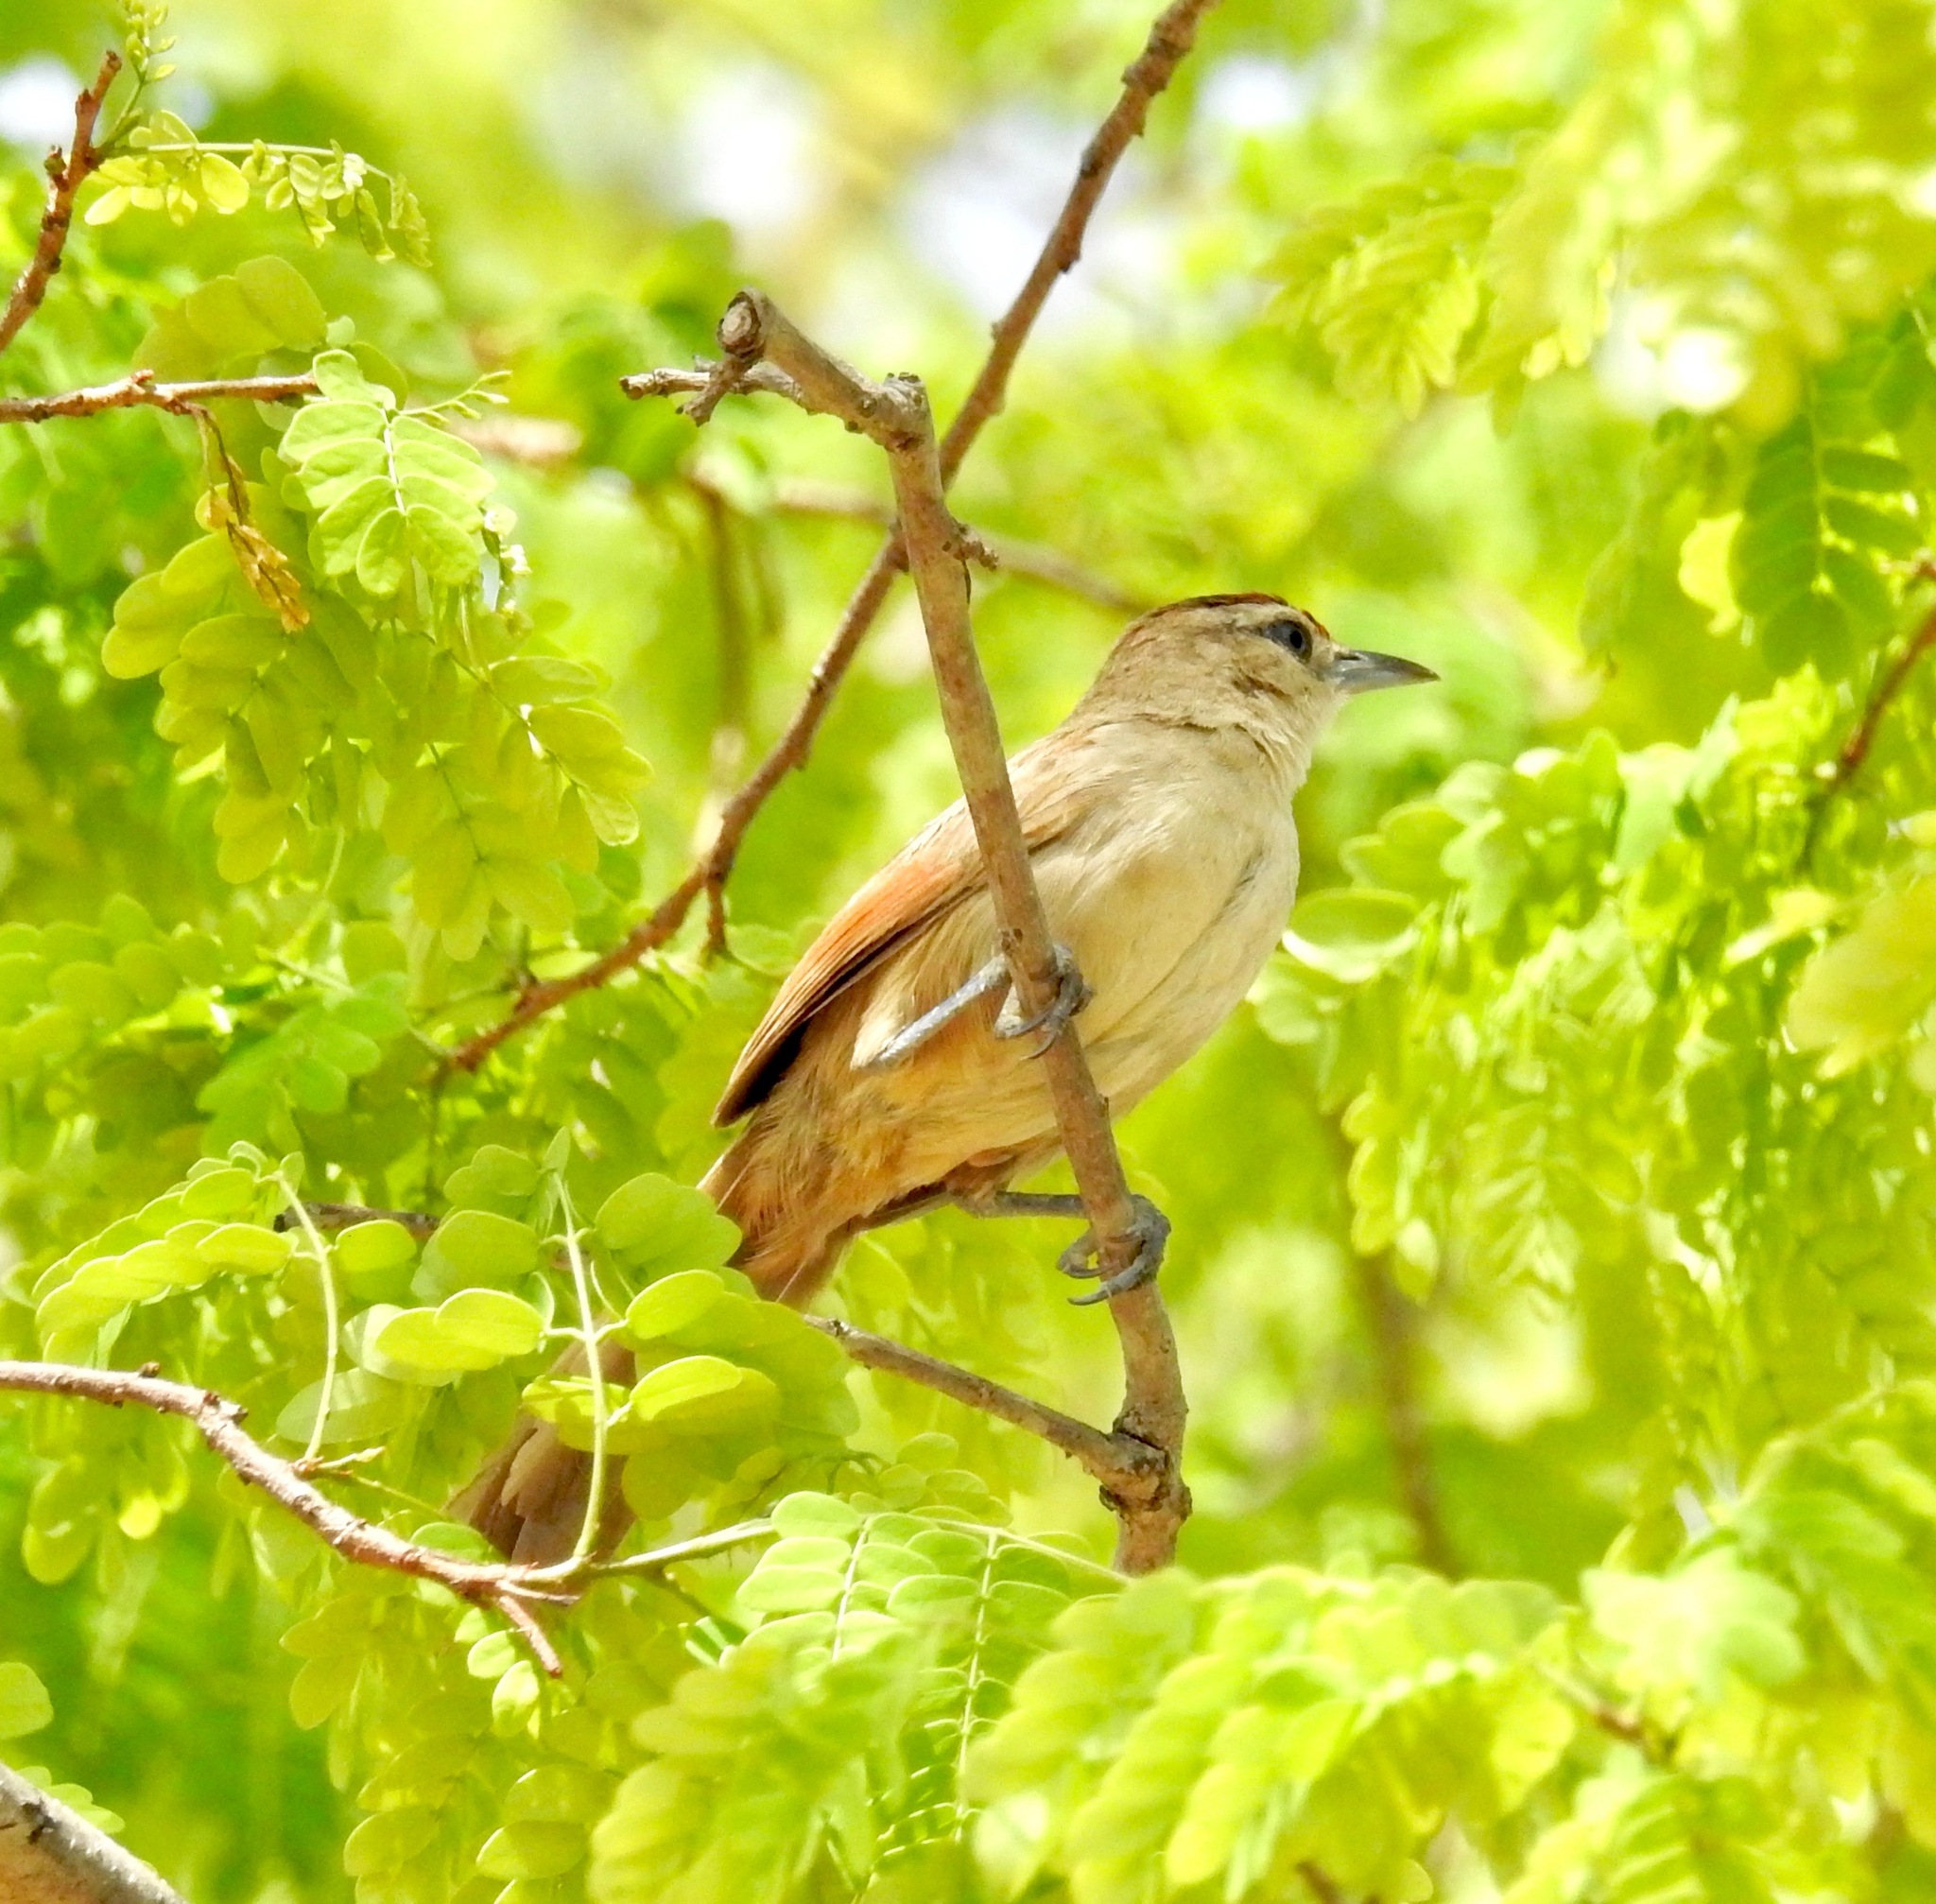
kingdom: Animalia
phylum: Chordata
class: Aves
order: Passeriformes
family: Furnariidae
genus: Phacellodomus
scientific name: Phacellodomus rufifrons
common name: Rufous-fronted thornbird
